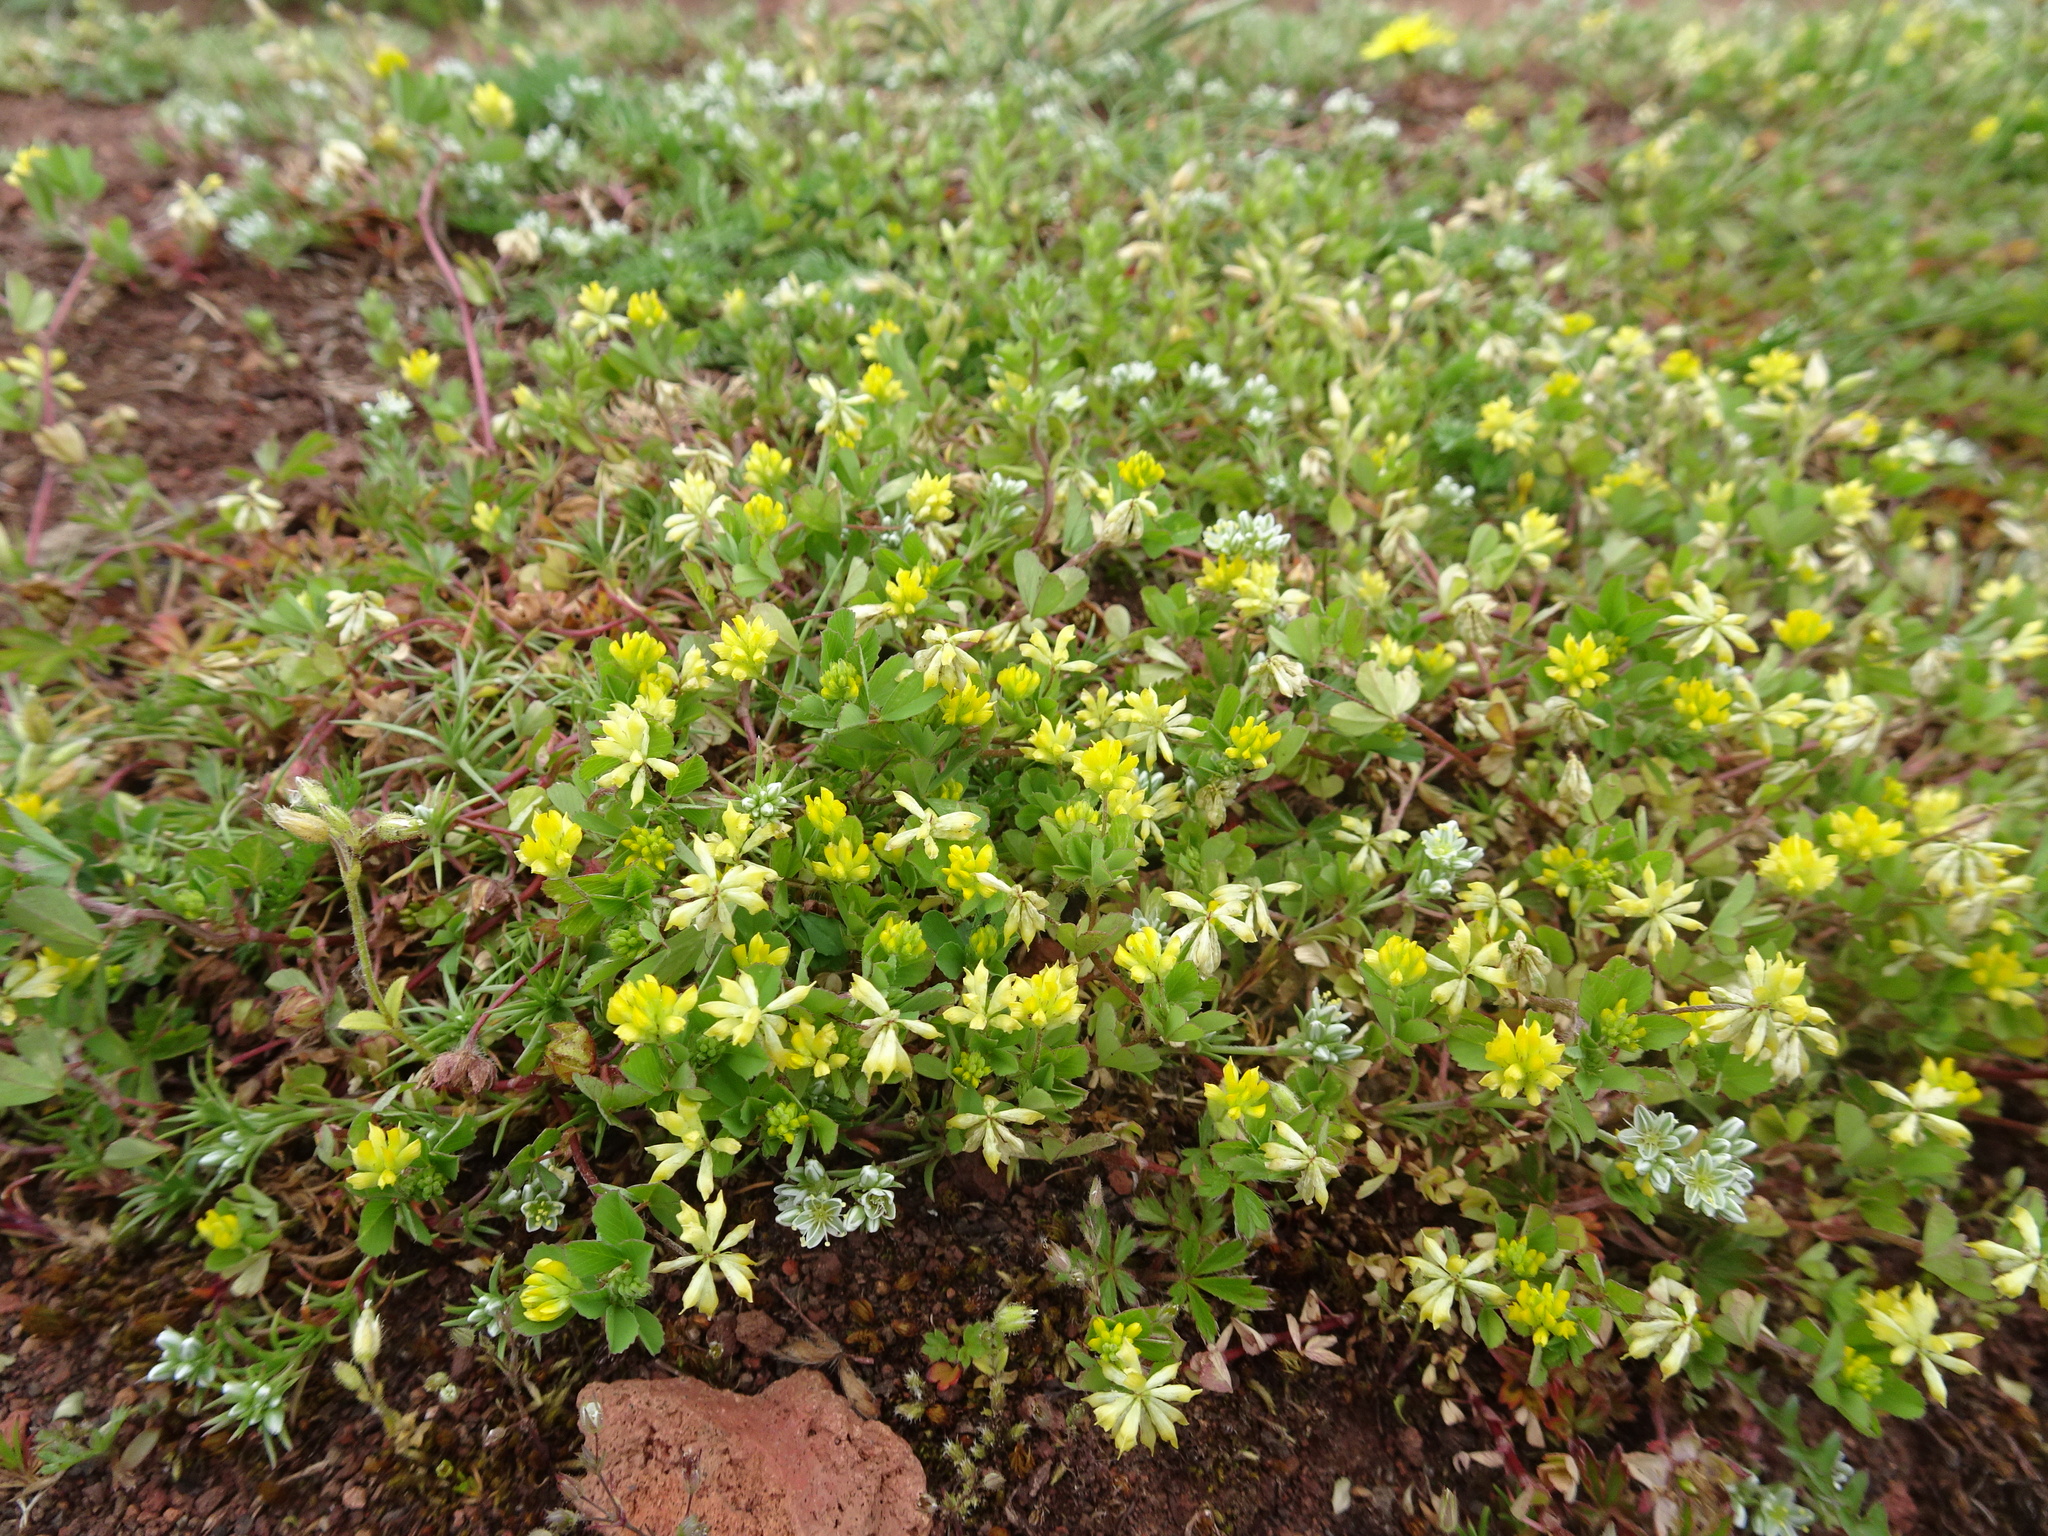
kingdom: Plantae
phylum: Tracheophyta
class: Magnoliopsida
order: Fabales
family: Fabaceae
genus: Trifolium
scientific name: Trifolium dubium
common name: Suckling clover
